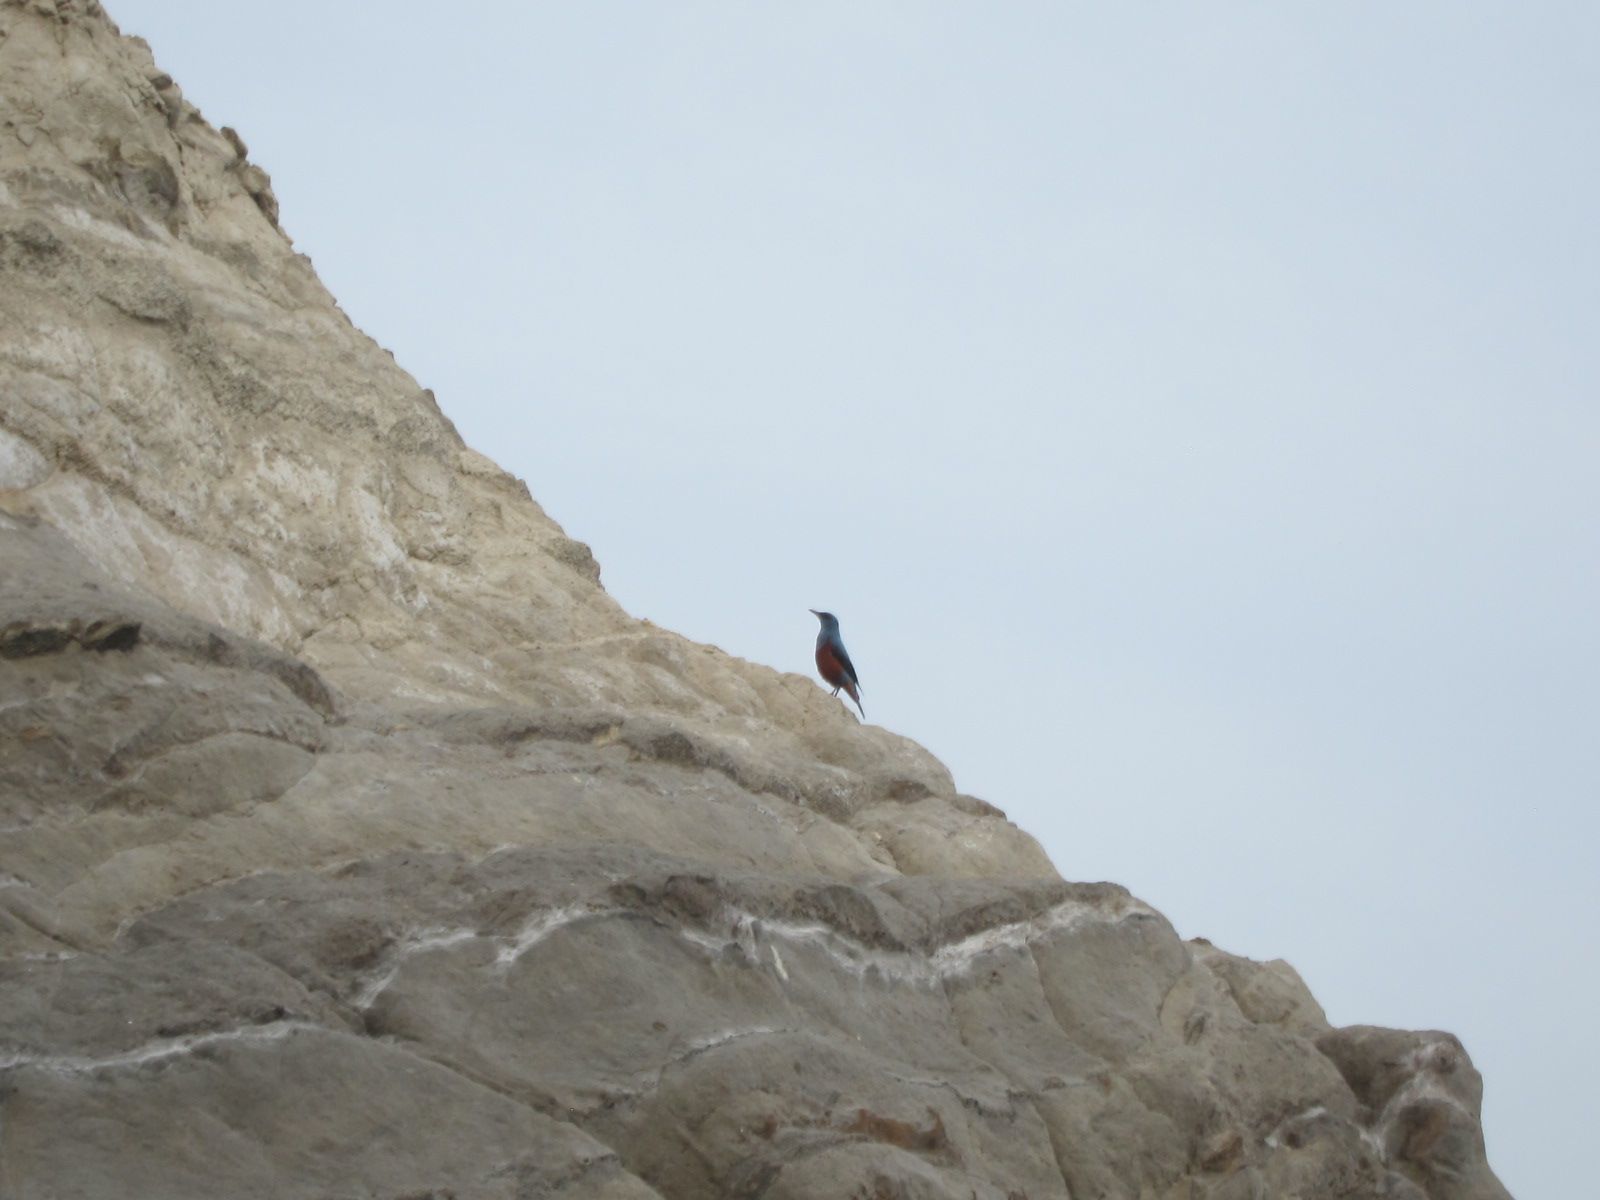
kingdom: Animalia
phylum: Chordata
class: Aves
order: Passeriformes
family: Muscicapidae
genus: Monticola
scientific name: Monticola solitarius
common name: Blue rock thrush
